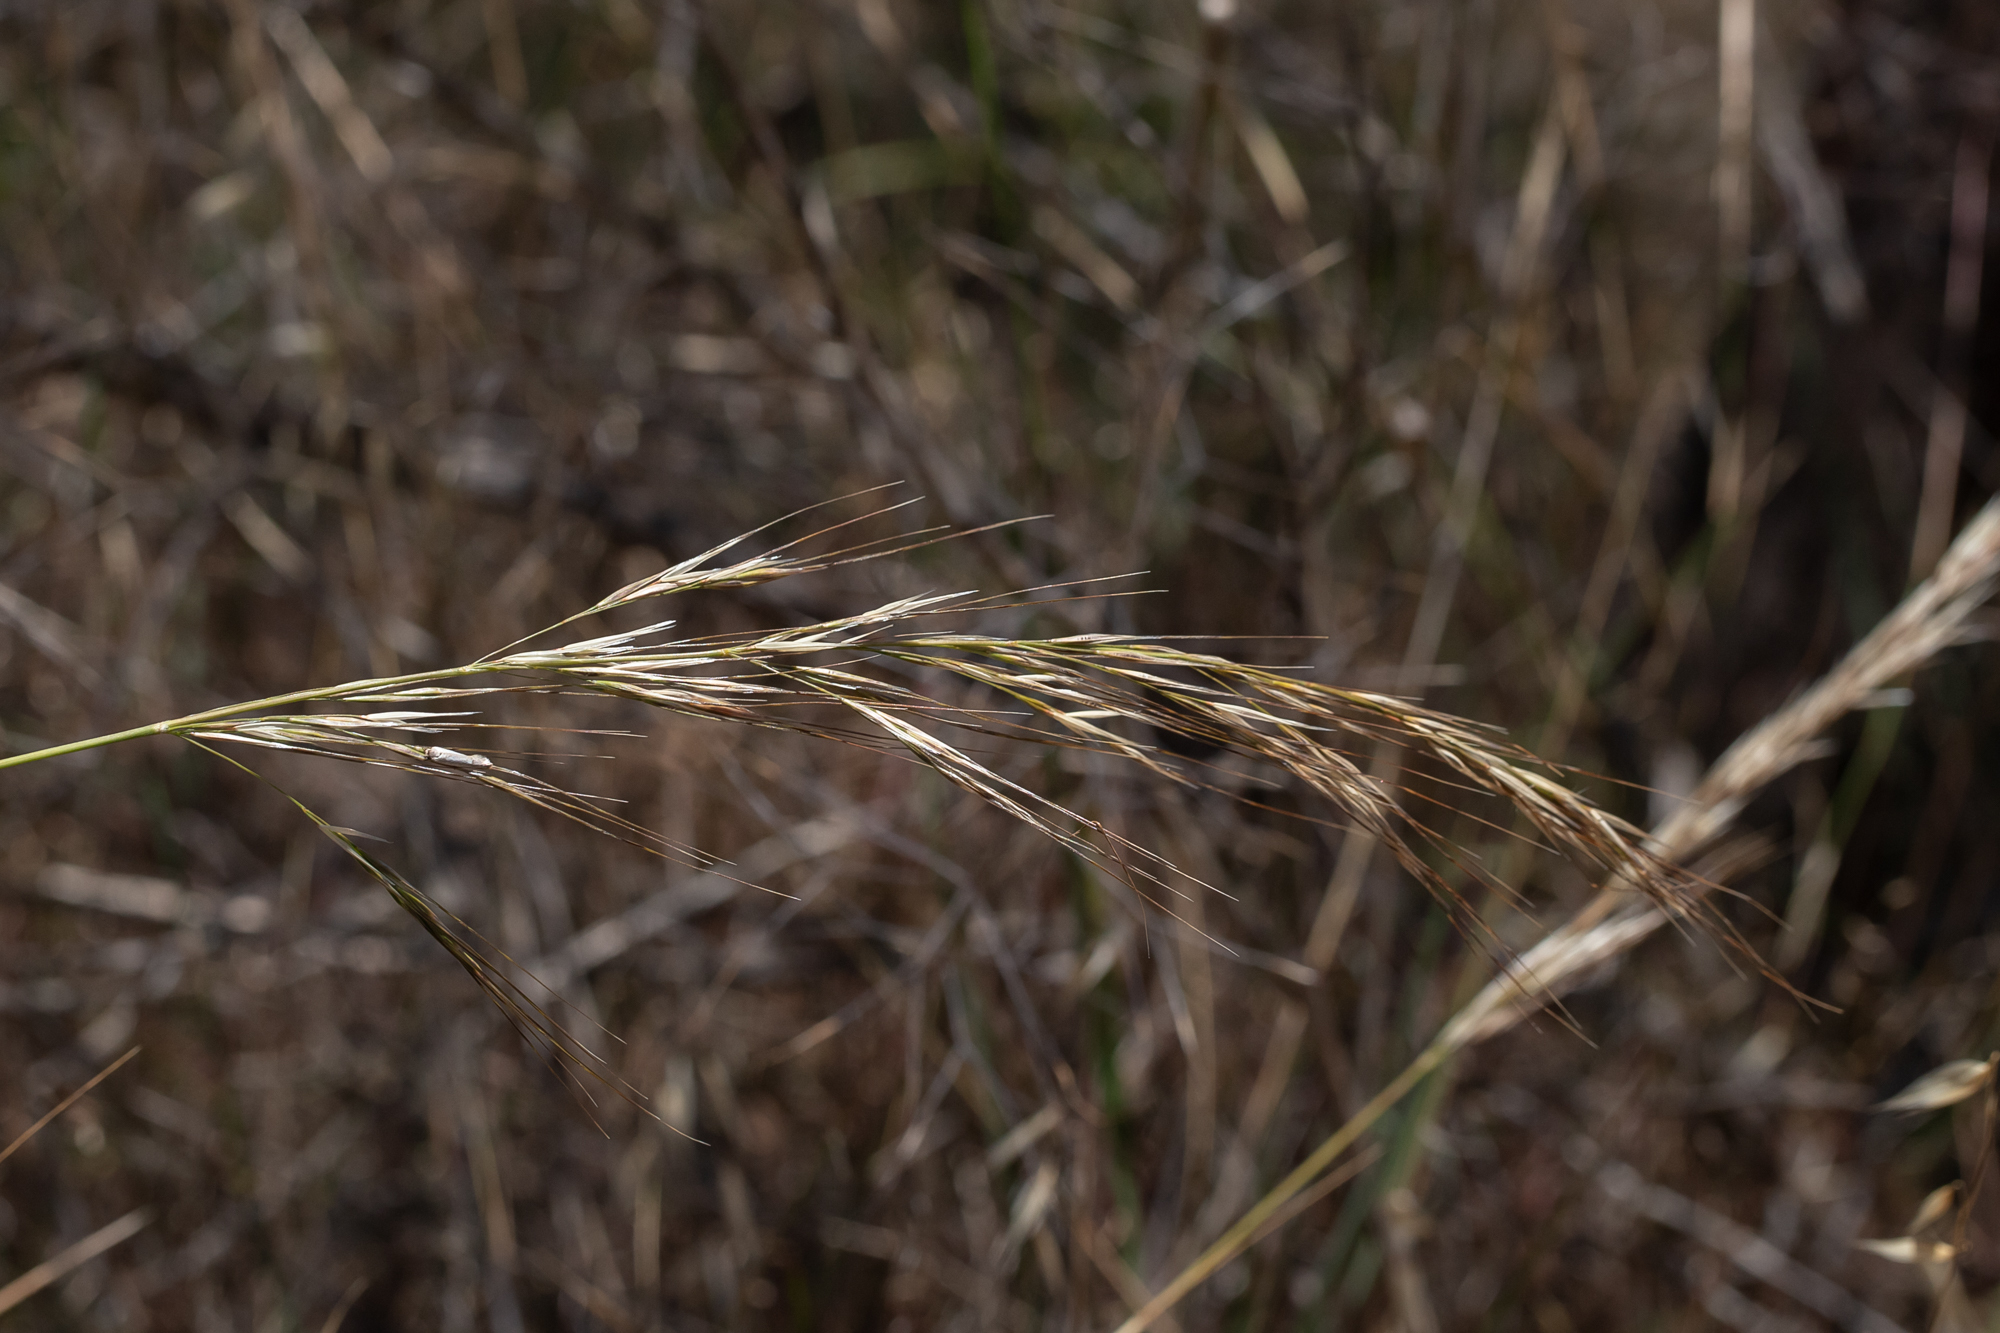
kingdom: Plantae
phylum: Tracheophyta
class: Liliopsida
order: Poales
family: Poaceae
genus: Austrostipa
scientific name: Austrostipa blackii
